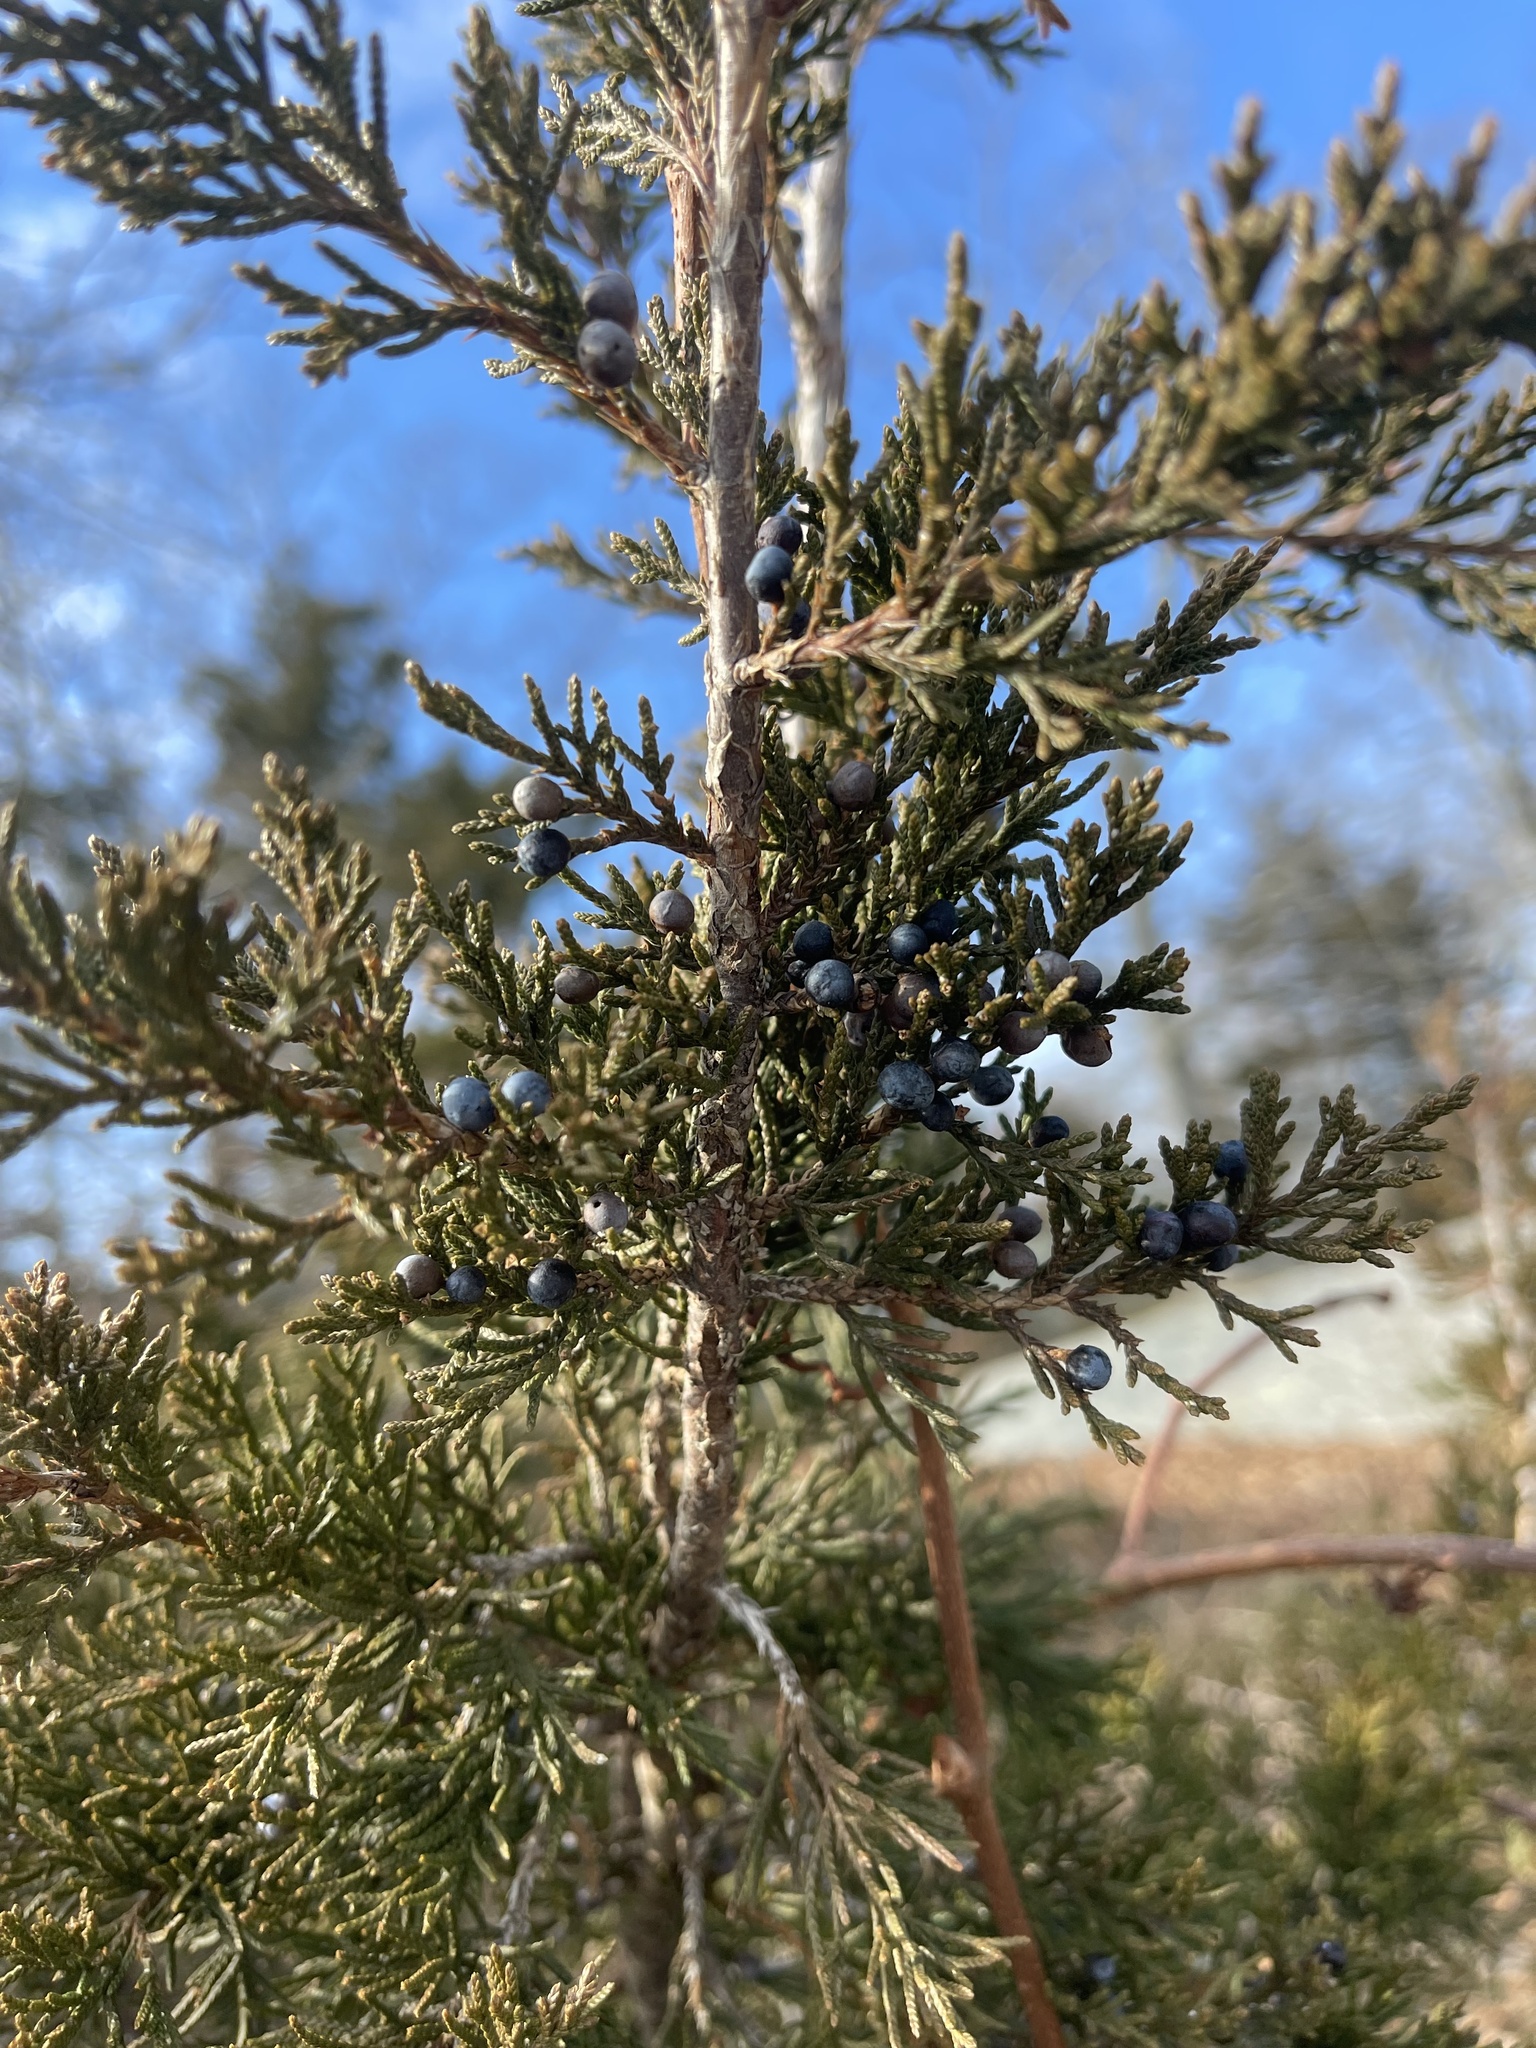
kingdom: Plantae
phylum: Tracheophyta
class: Pinopsida
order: Pinales
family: Cupressaceae
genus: Juniperus
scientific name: Juniperus virginiana
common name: Red juniper
